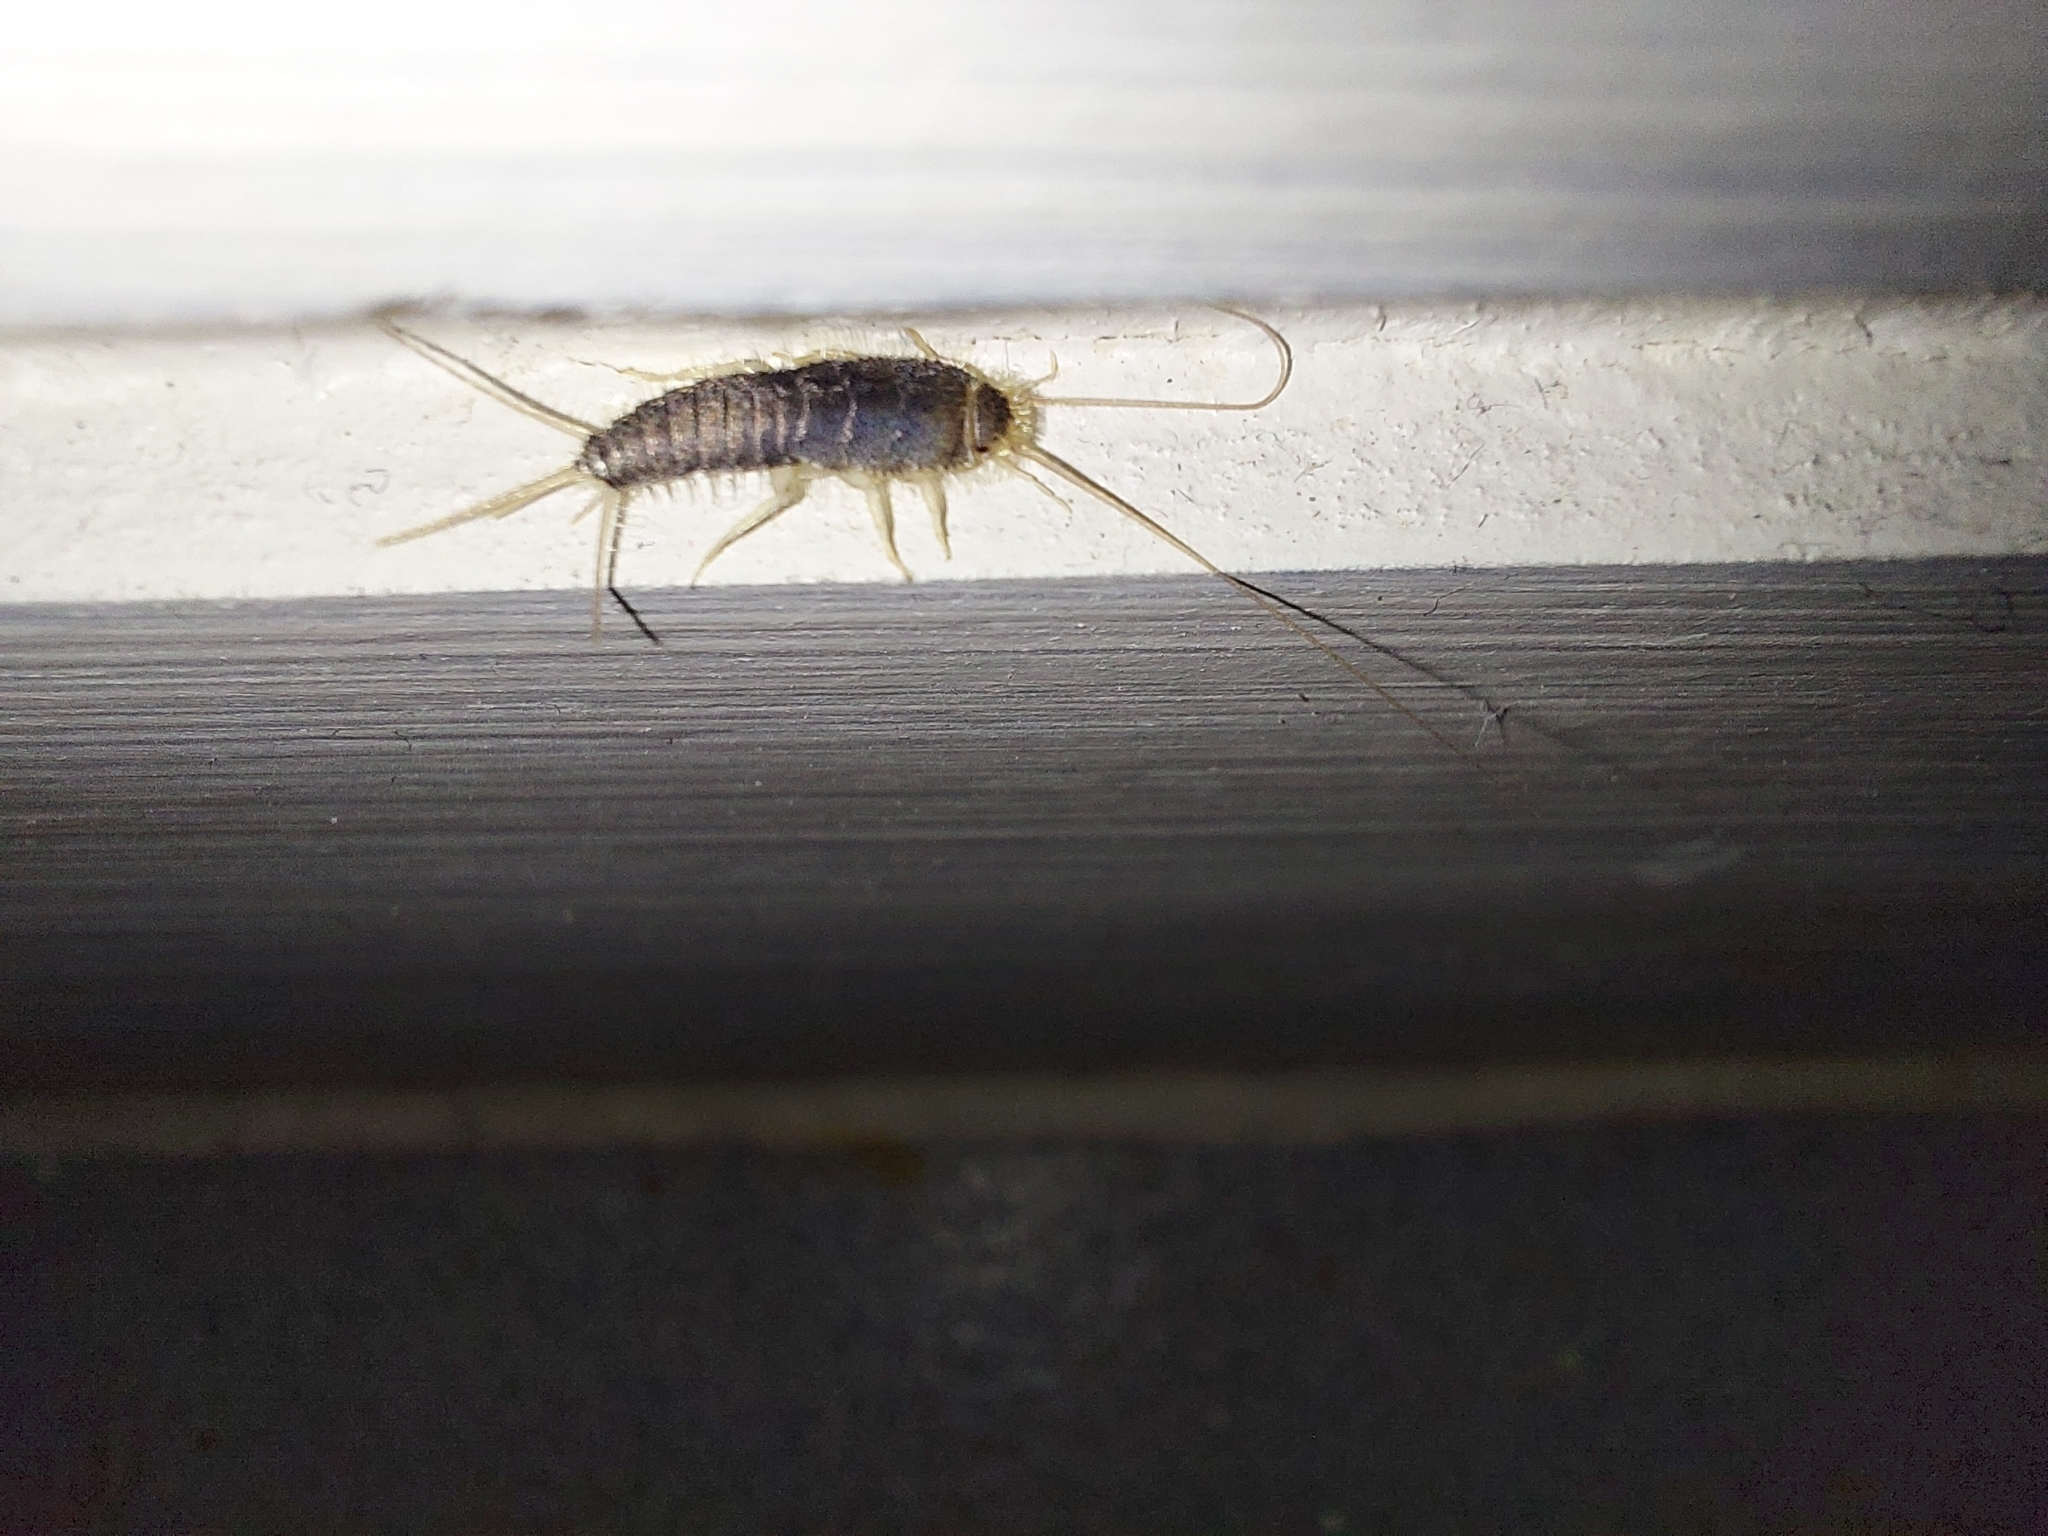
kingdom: Animalia
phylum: Arthropoda
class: Insecta
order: Zygentoma
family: Lepismatidae
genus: Ctenolepisma
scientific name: Ctenolepisma longicaudatum
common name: Silverfish
